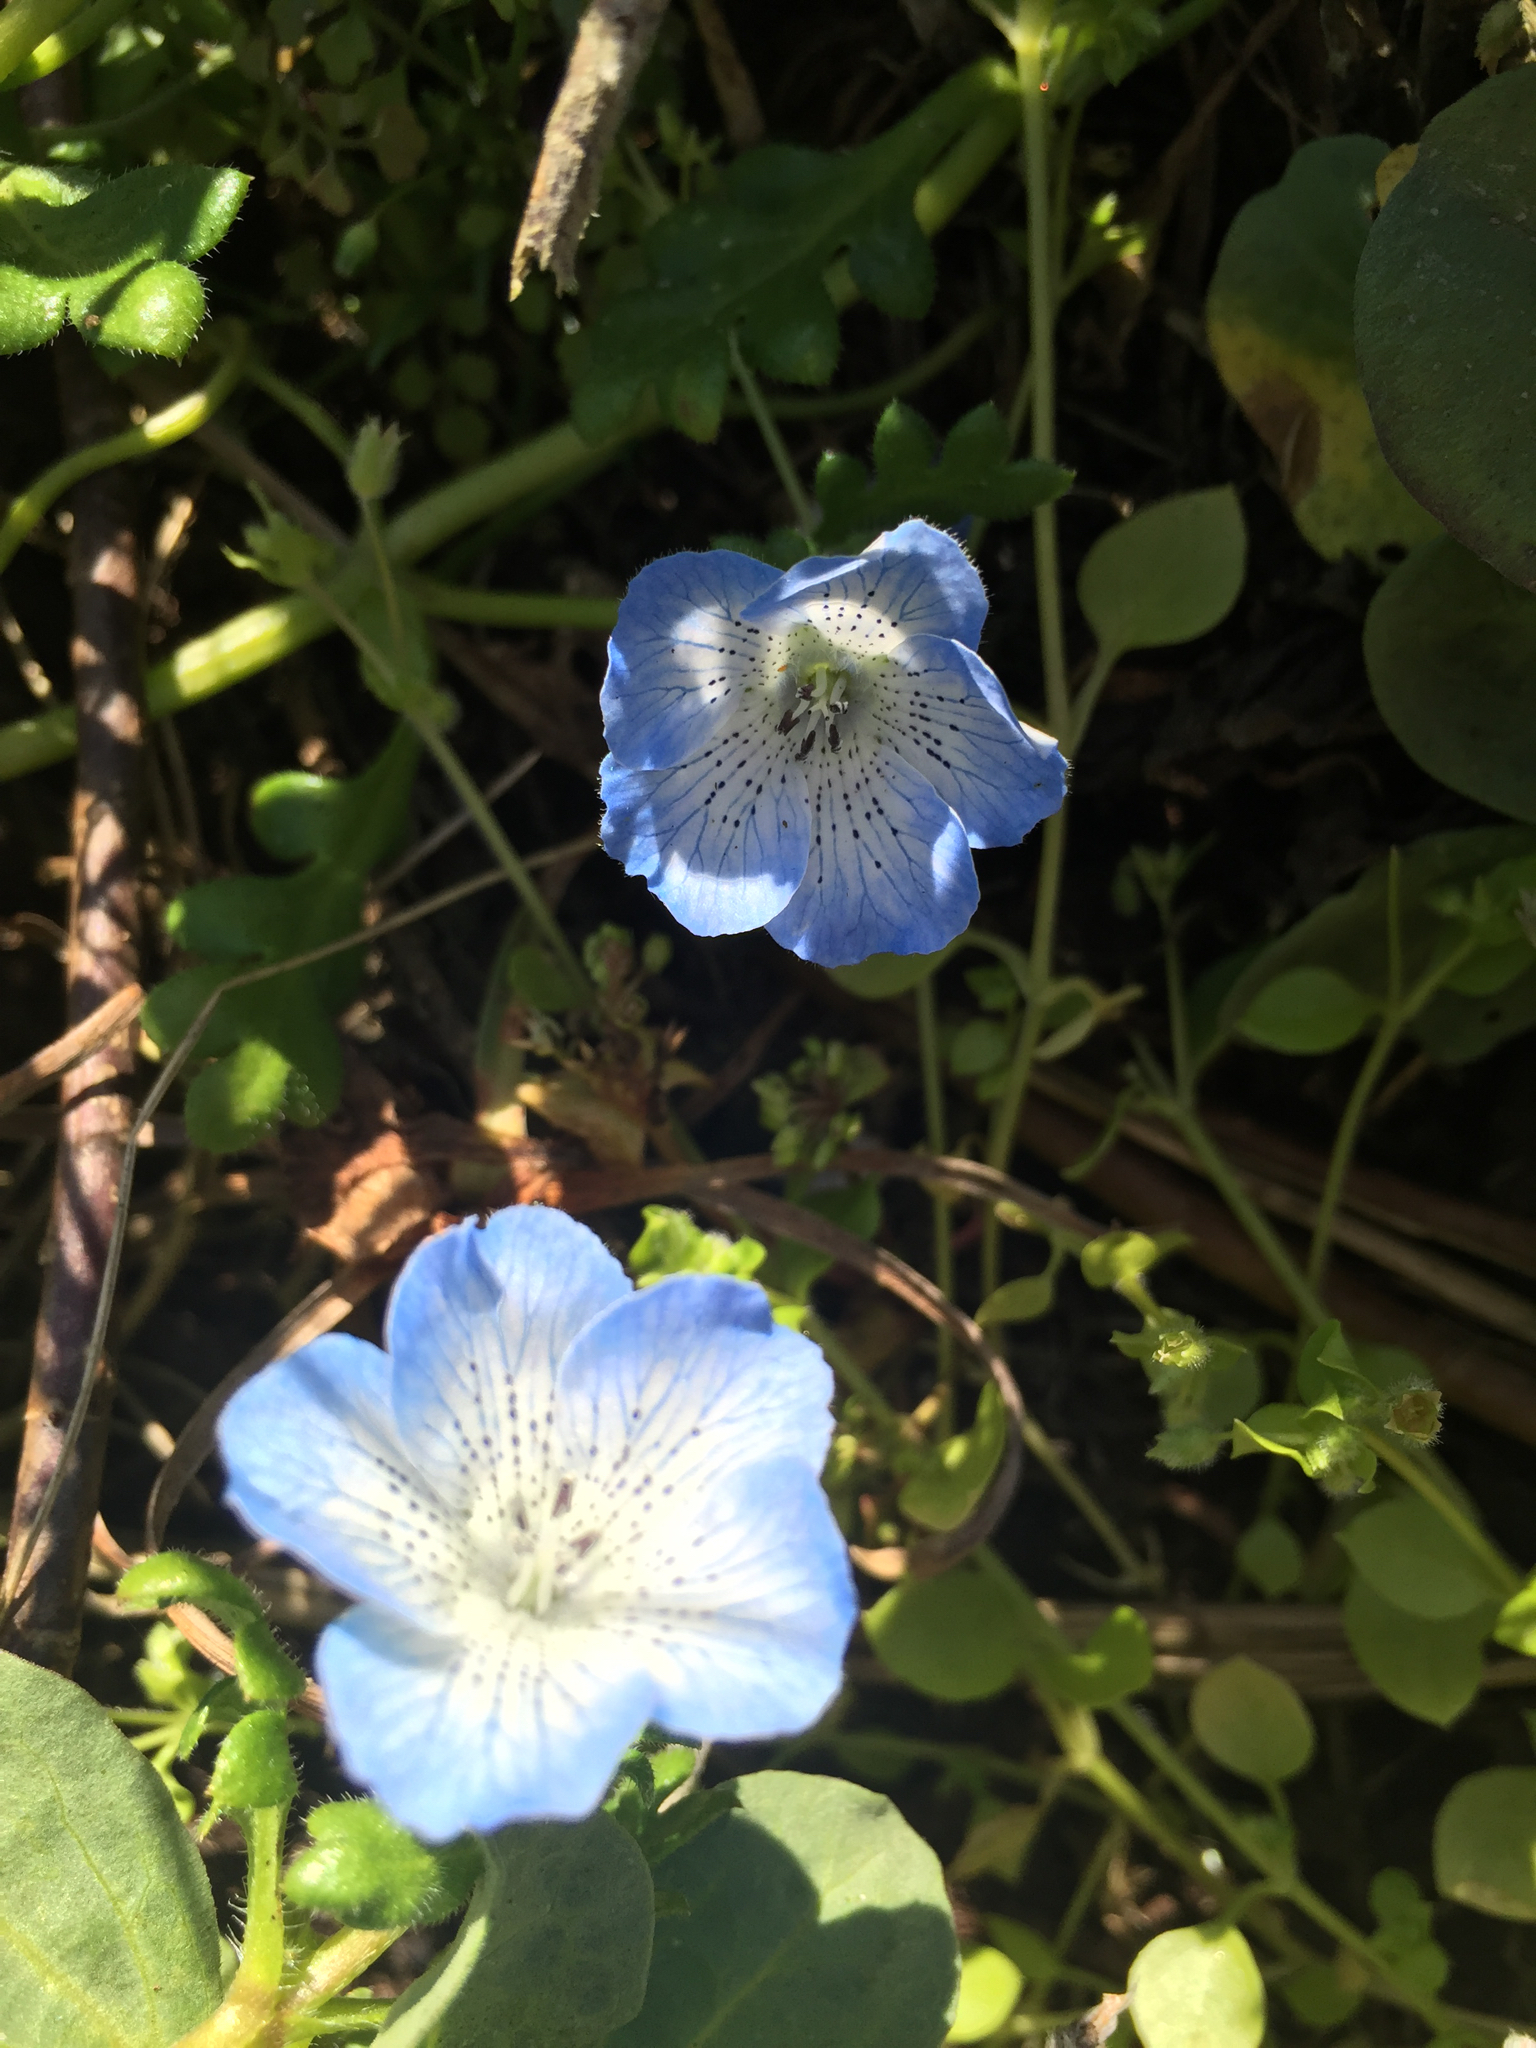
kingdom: Plantae
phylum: Tracheophyta
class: Magnoliopsida
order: Boraginales
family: Hydrophyllaceae
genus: Nemophila
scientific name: Nemophila menziesii
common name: Baby's-blue-eyes
